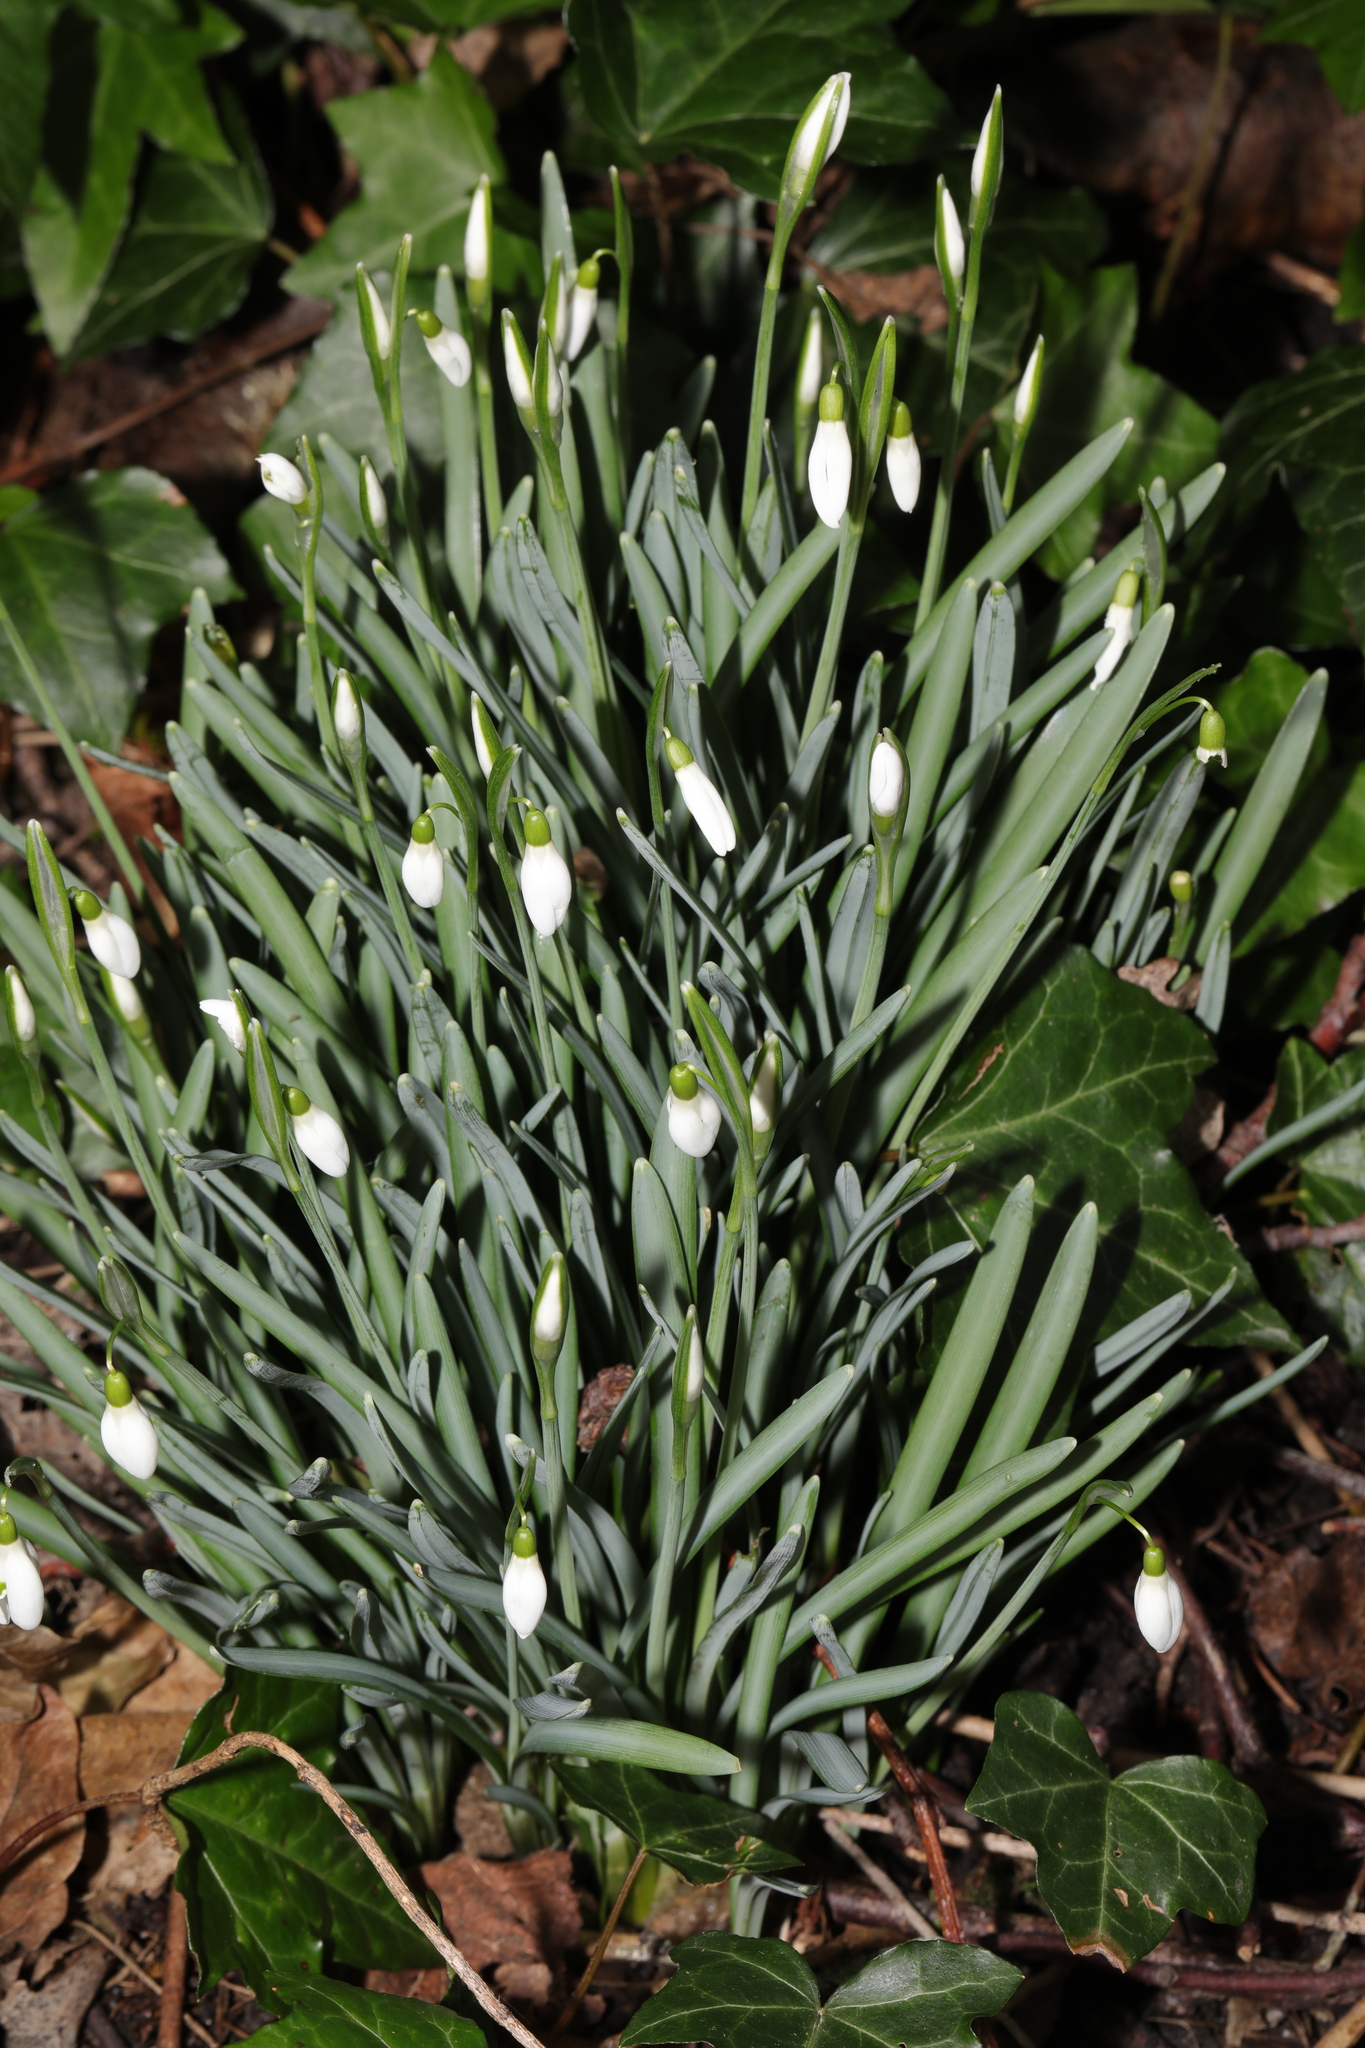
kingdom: Plantae
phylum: Tracheophyta
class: Liliopsida
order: Asparagales
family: Amaryllidaceae
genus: Galanthus
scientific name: Galanthus nivalis
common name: Snowdrop
